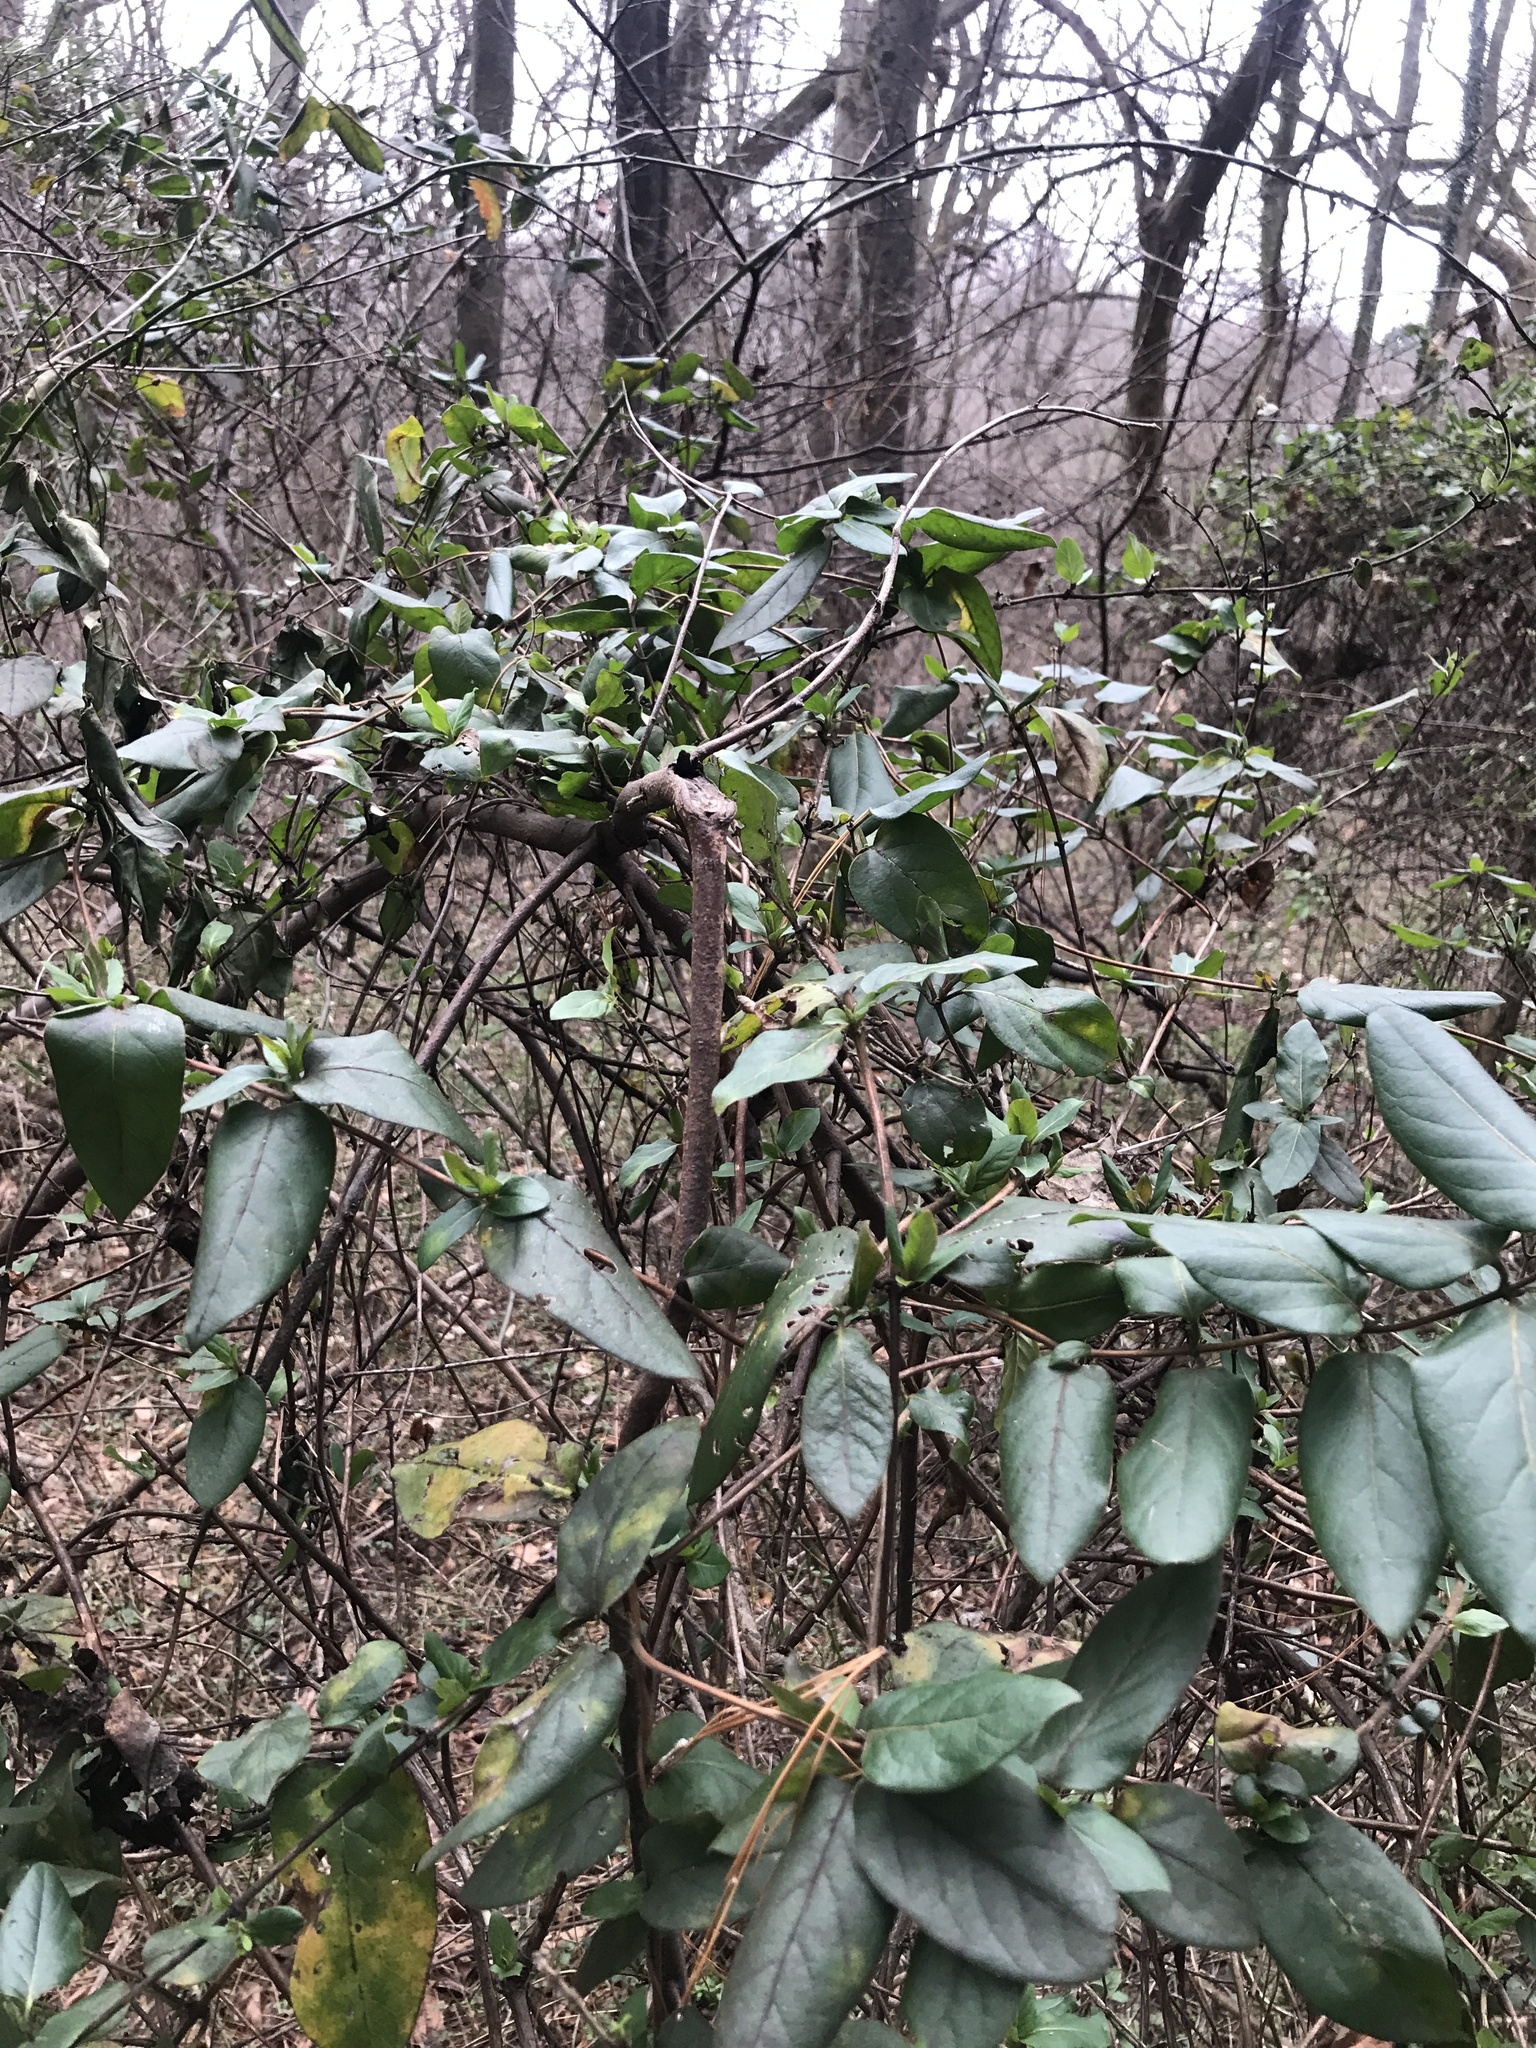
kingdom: Plantae
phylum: Tracheophyta
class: Magnoliopsida
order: Dipsacales
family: Caprifoliaceae
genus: Lonicera
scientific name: Lonicera japonica
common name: Japanese honeysuckle
